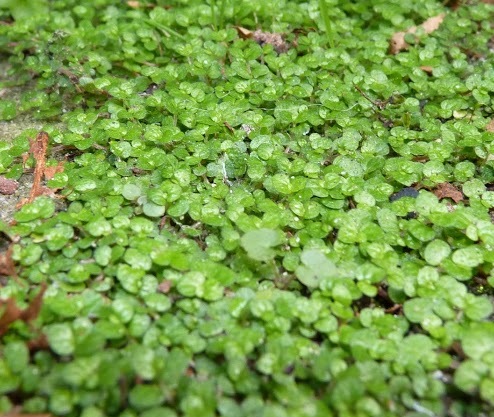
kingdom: Plantae
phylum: Tracheophyta
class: Magnoliopsida
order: Rosales
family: Urticaceae
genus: Soleirolia
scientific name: Soleirolia soleirolii
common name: Mind-your-own-business
